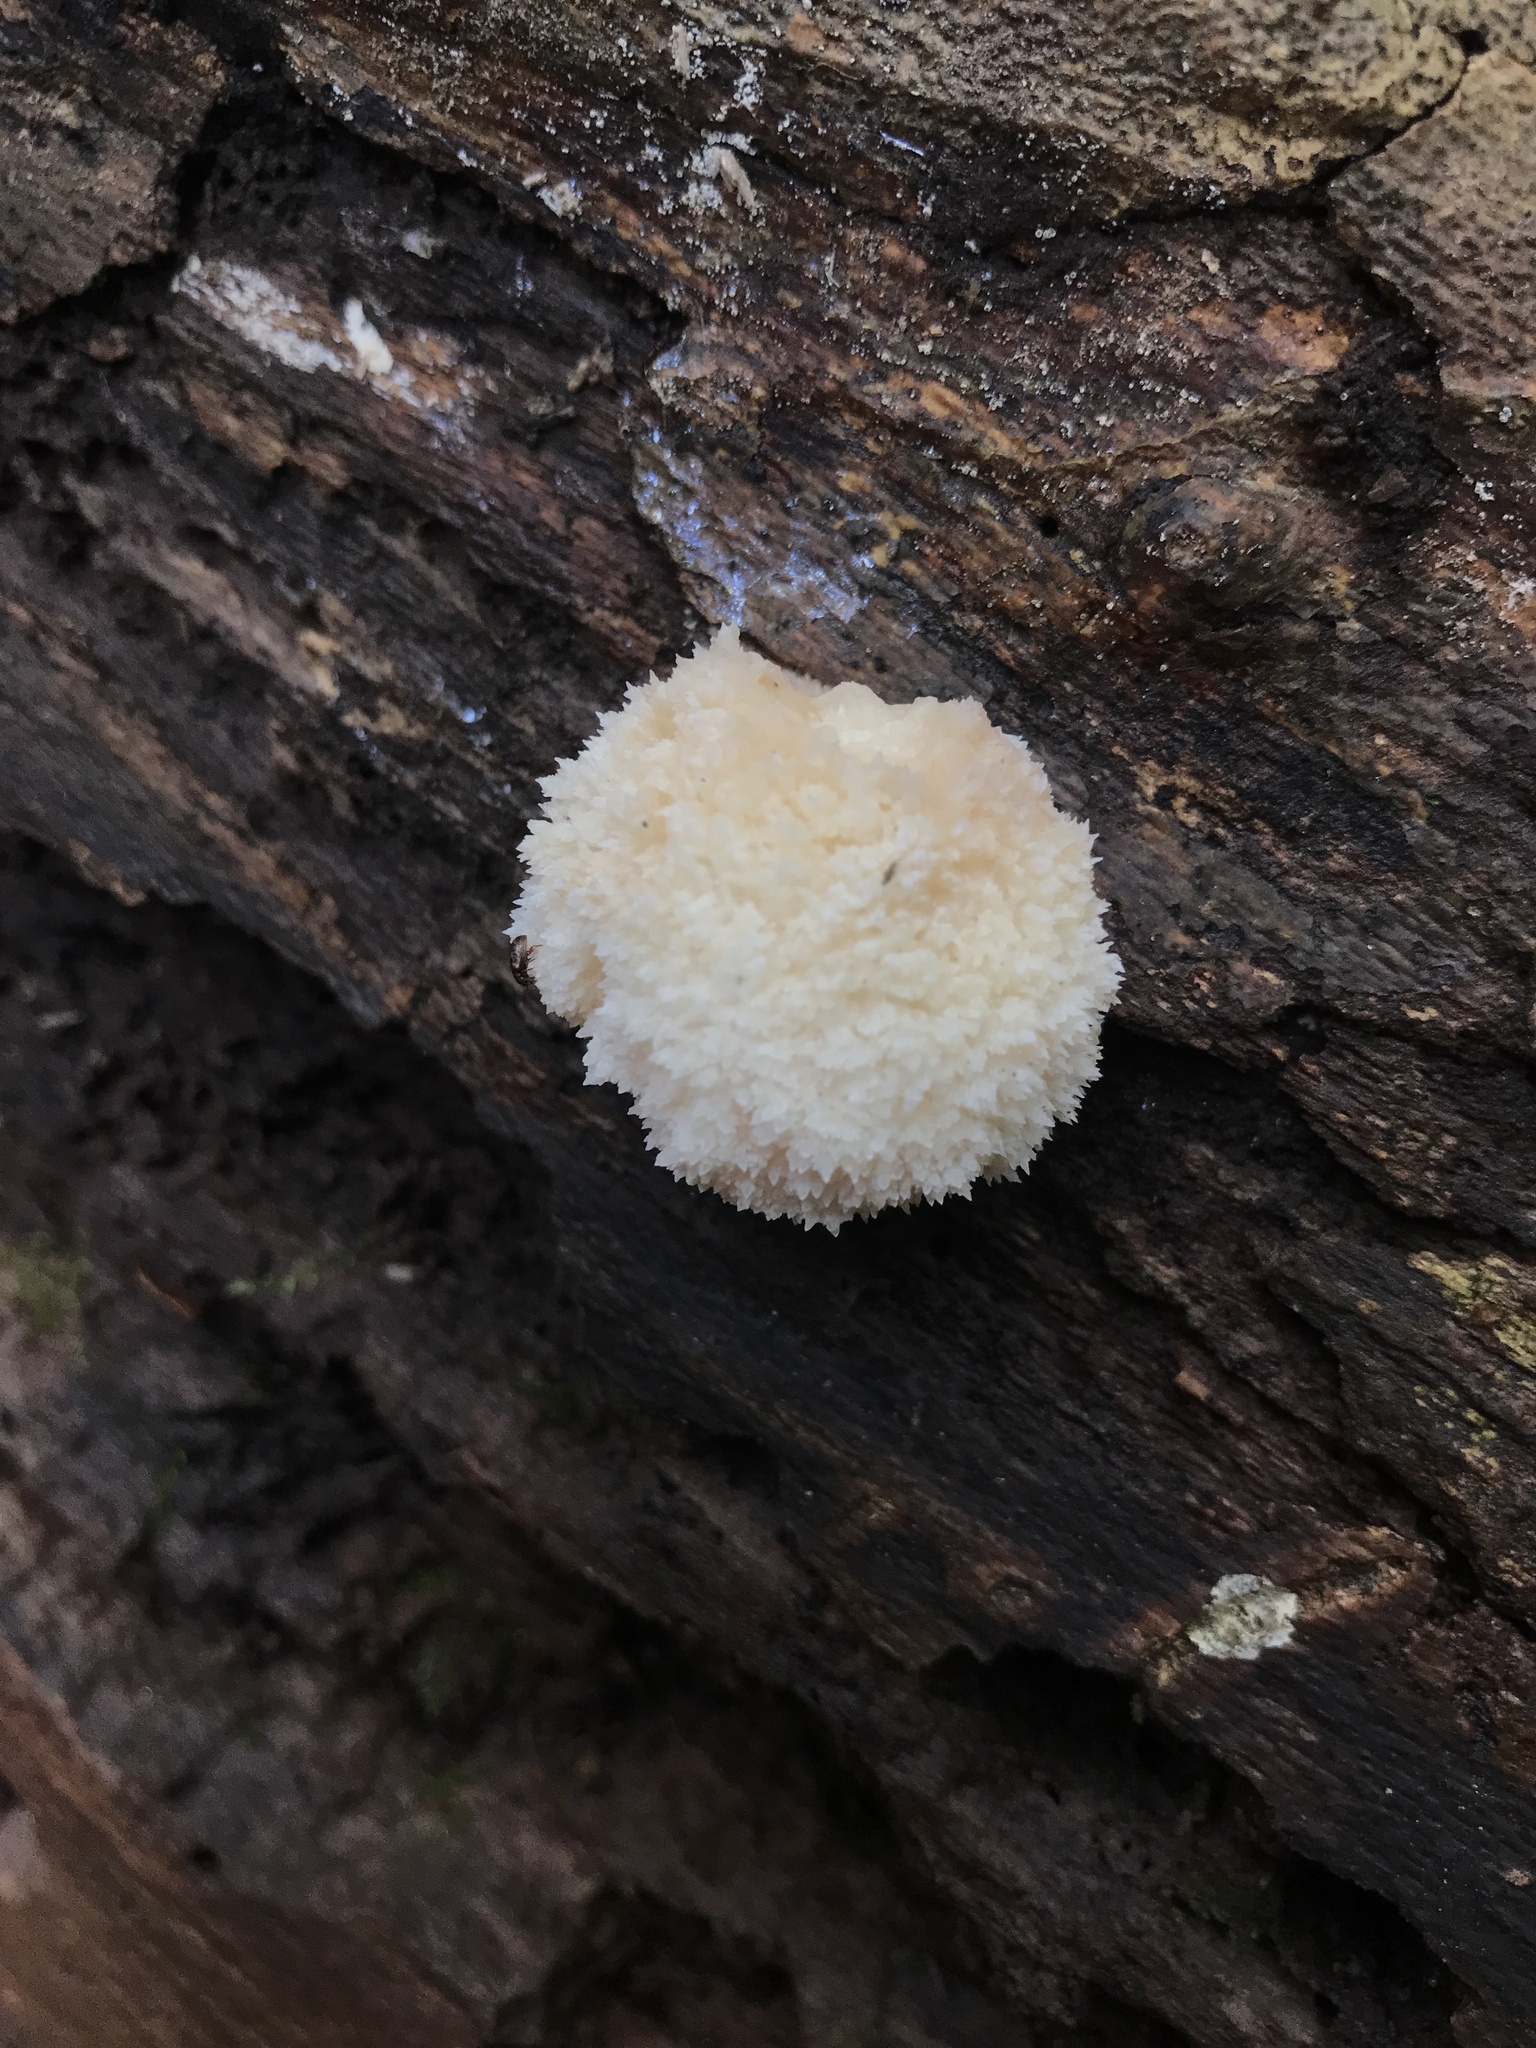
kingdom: Fungi
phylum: Basidiomycota
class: Agaricomycetes
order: Russulales
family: Hericiaceae
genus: Hericium
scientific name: Hericium erinaceus
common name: Bearded tooth
